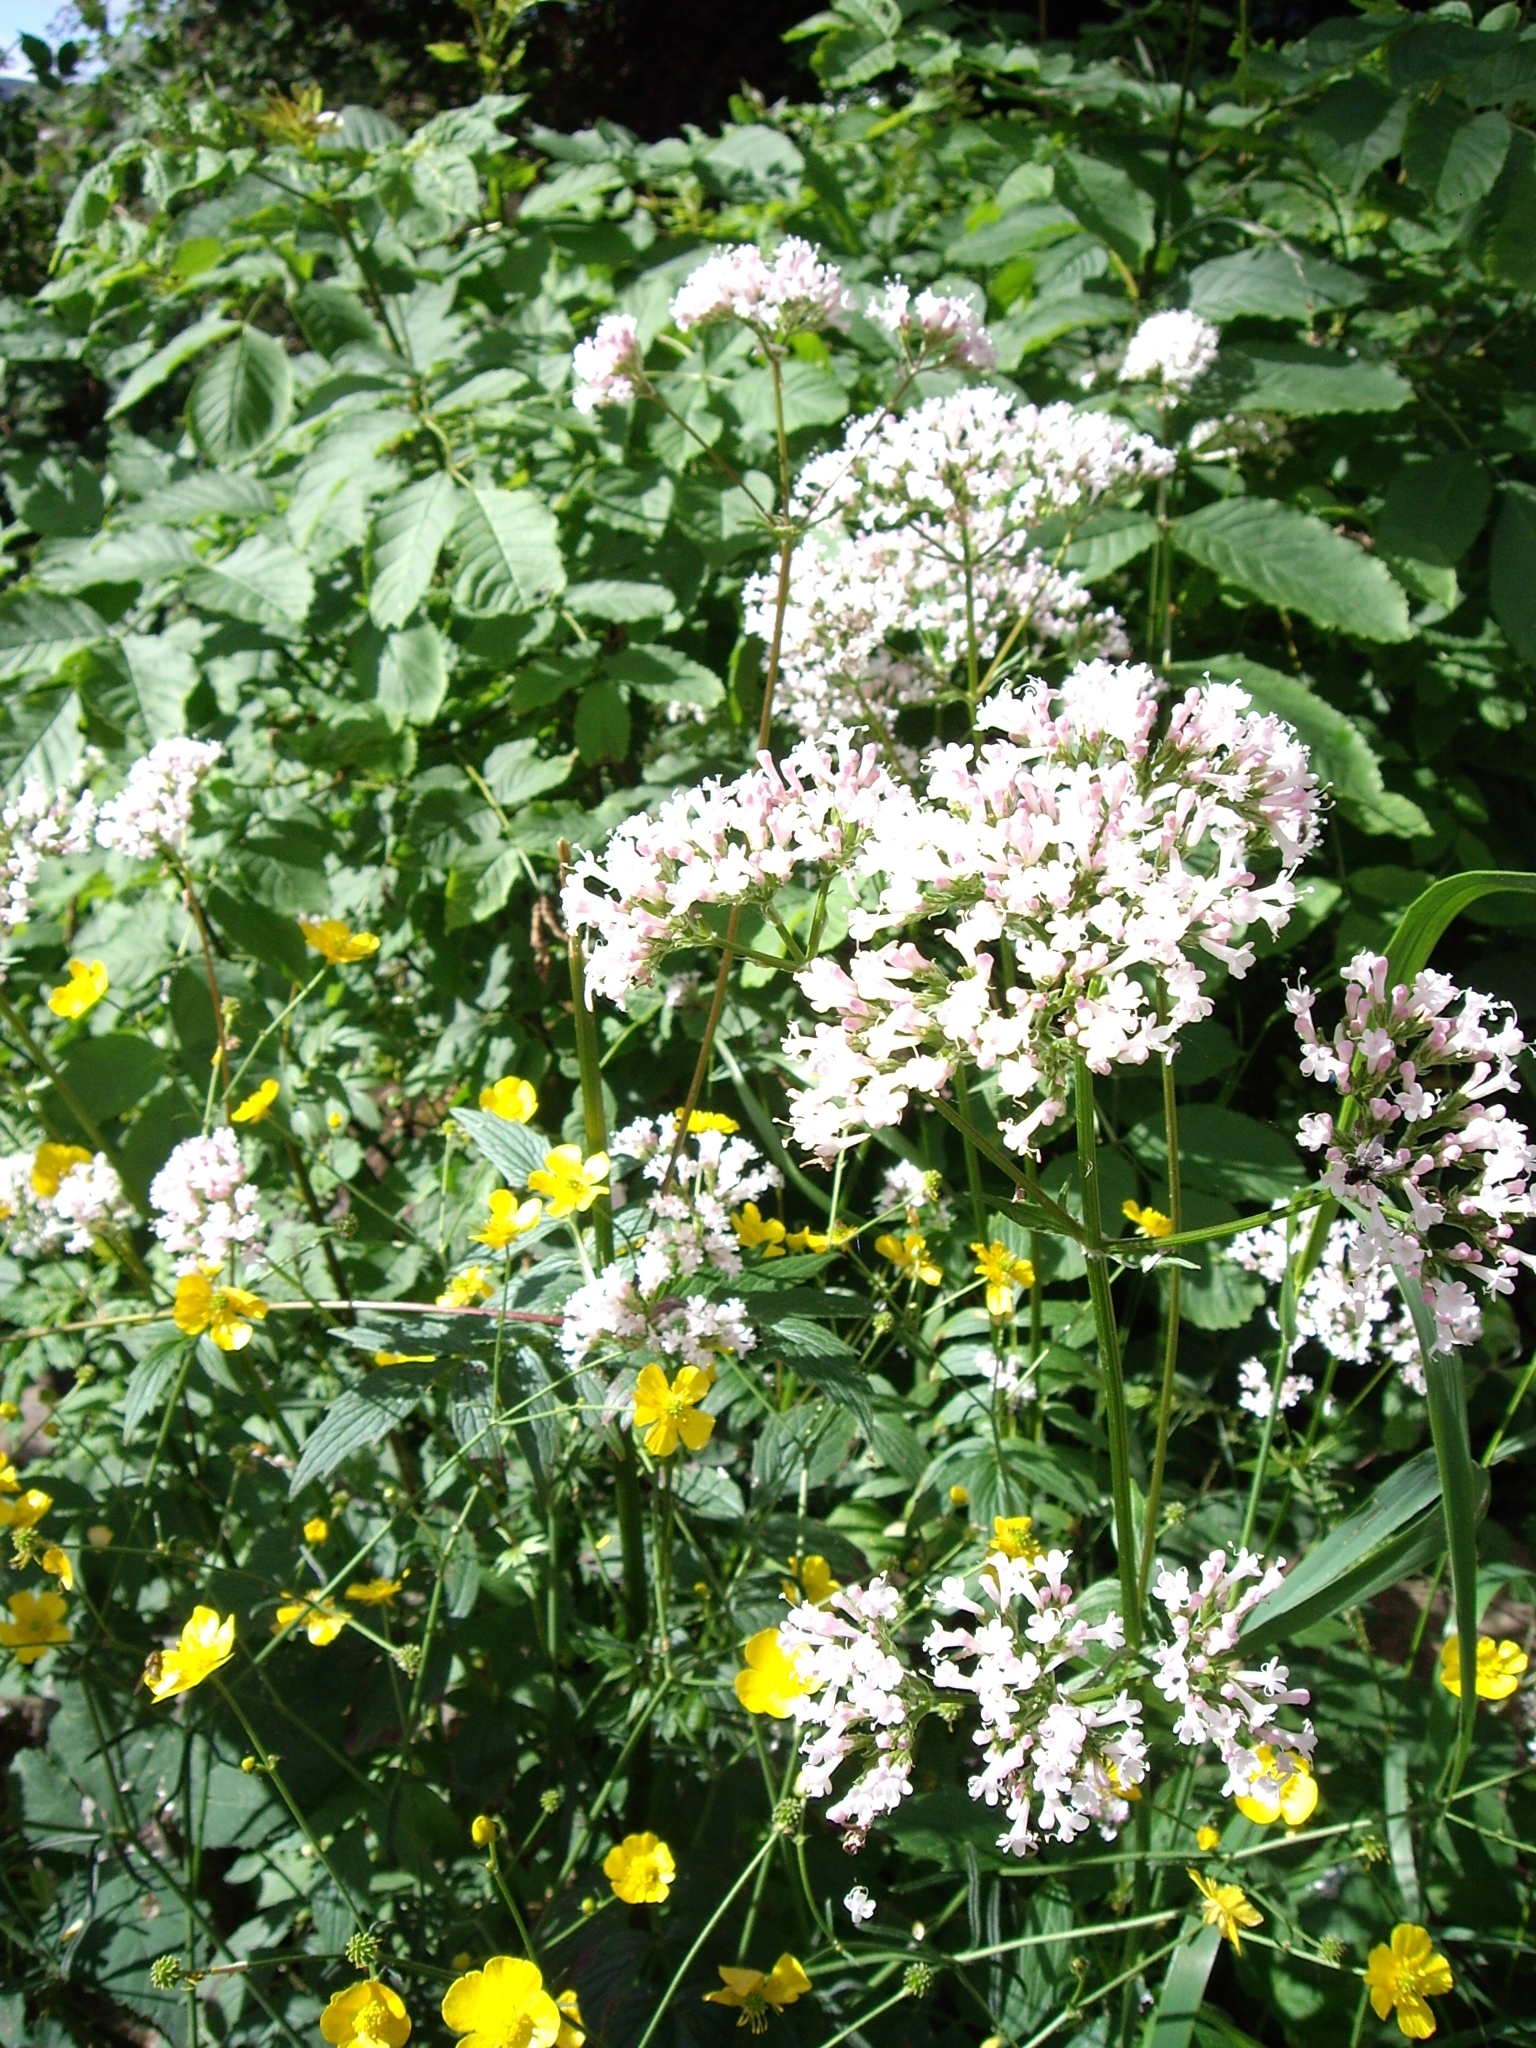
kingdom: Plantae
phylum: Tracheophyta
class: Magnoliopsida
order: Dipsacales
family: Caprifoliaceae
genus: Valeriana
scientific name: Valeriana officinalis
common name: Common valerian
